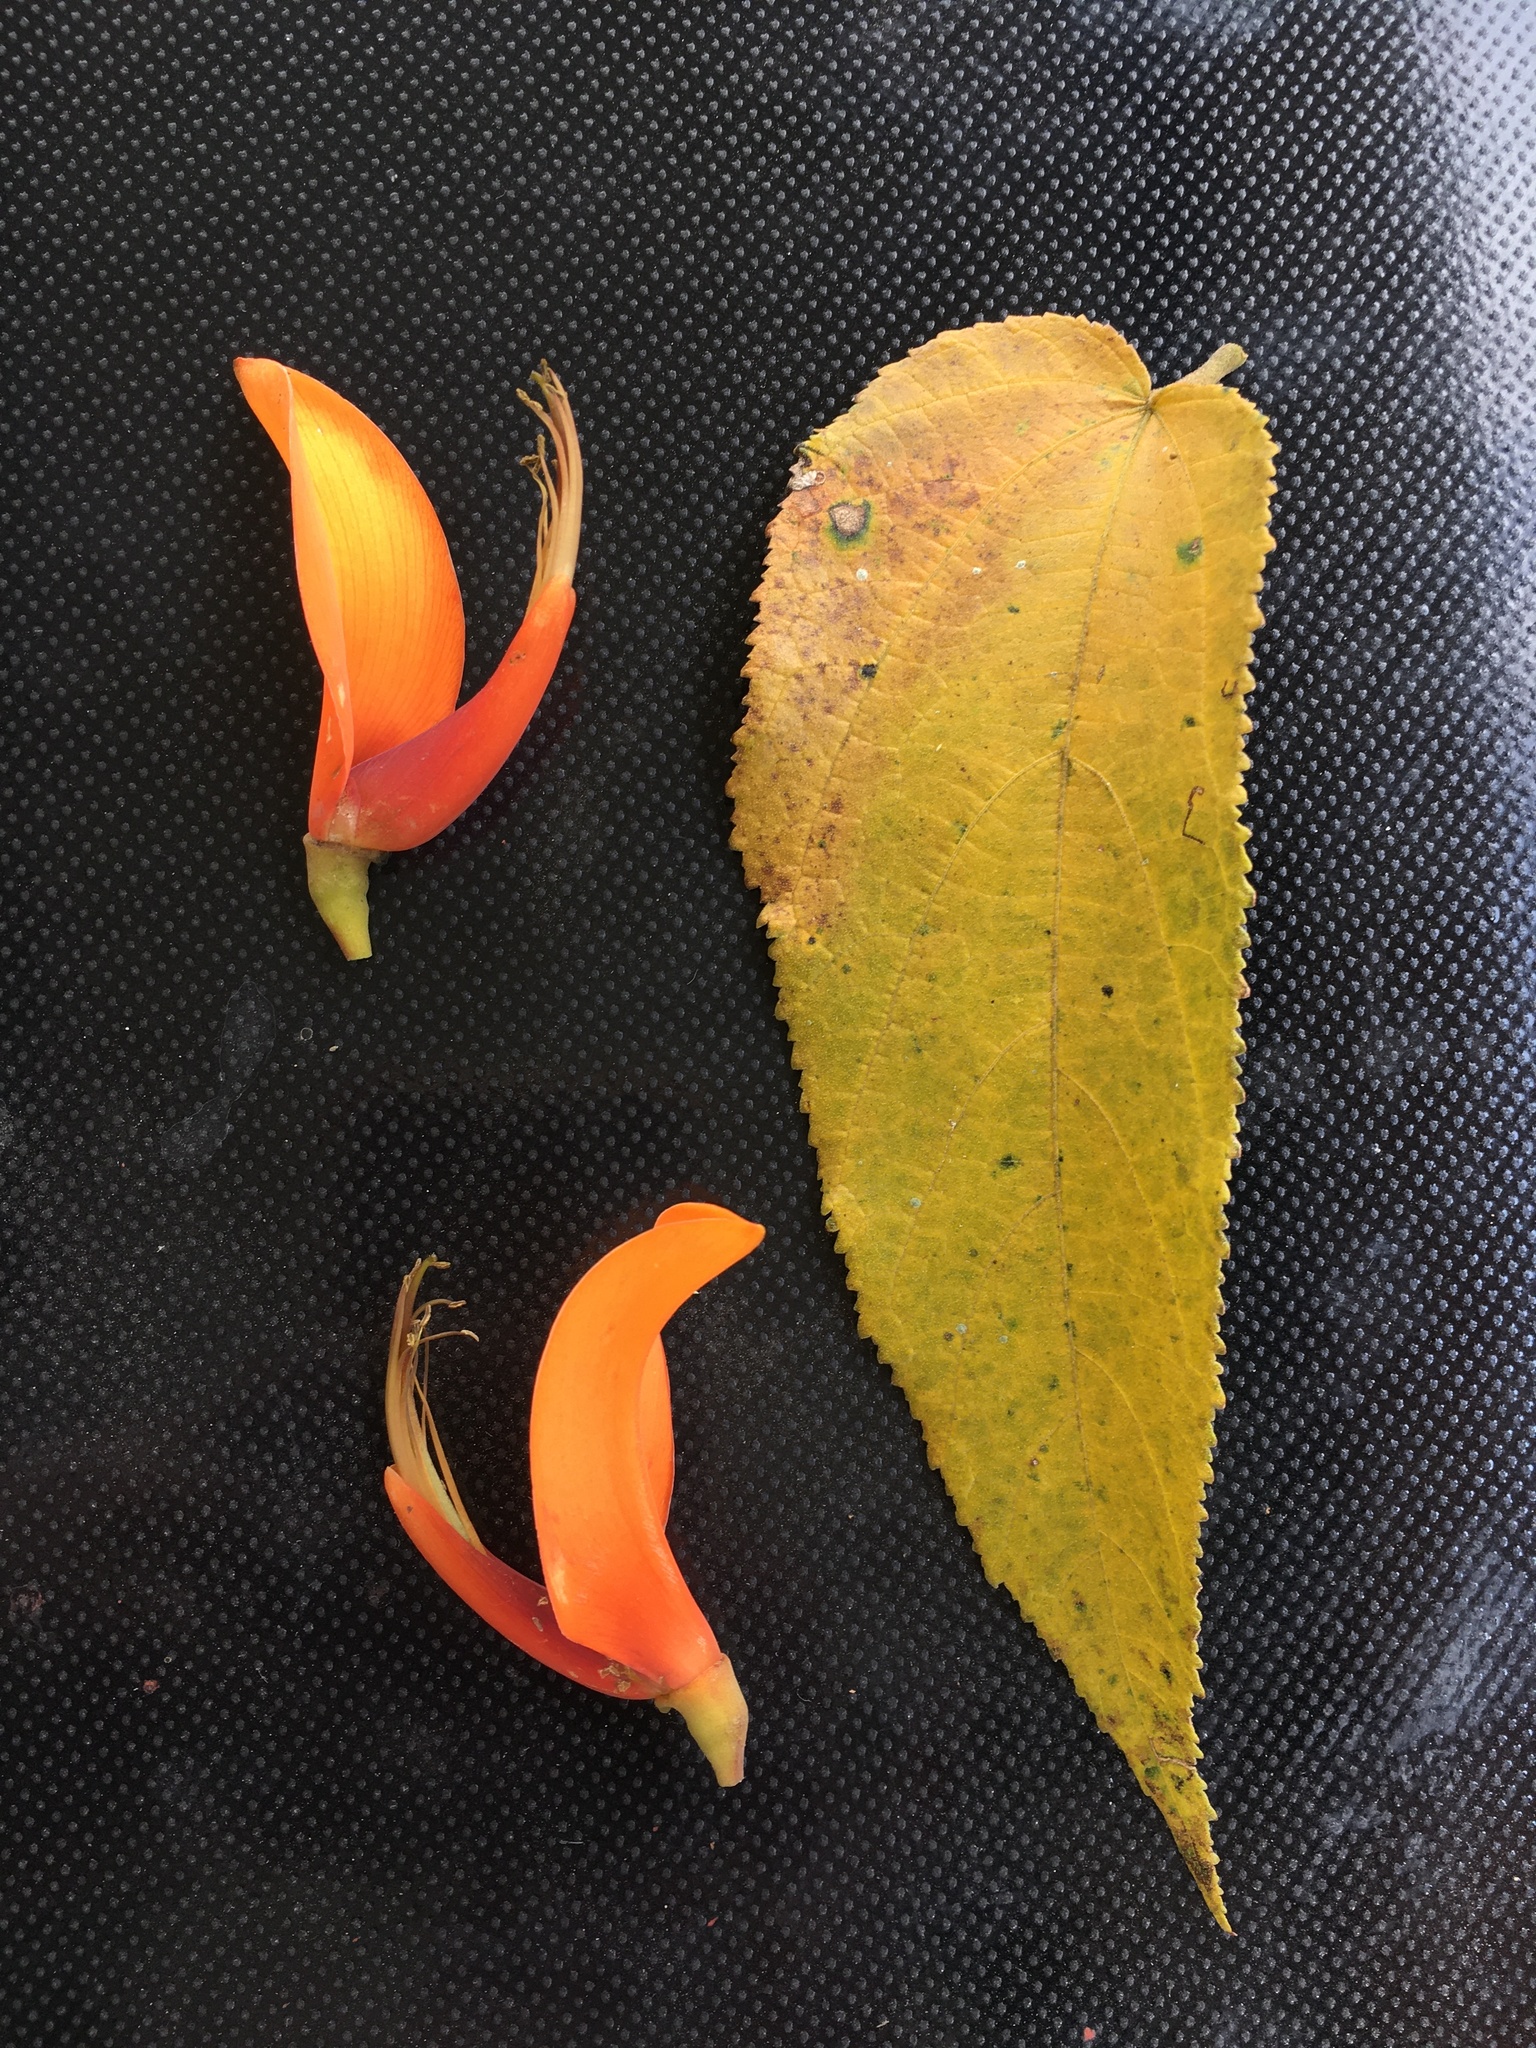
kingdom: Plantae
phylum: Tracheophyta
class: Magnoliopsida
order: Fabales
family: Fabaceae
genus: Erythrina
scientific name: Erythrina edulis
